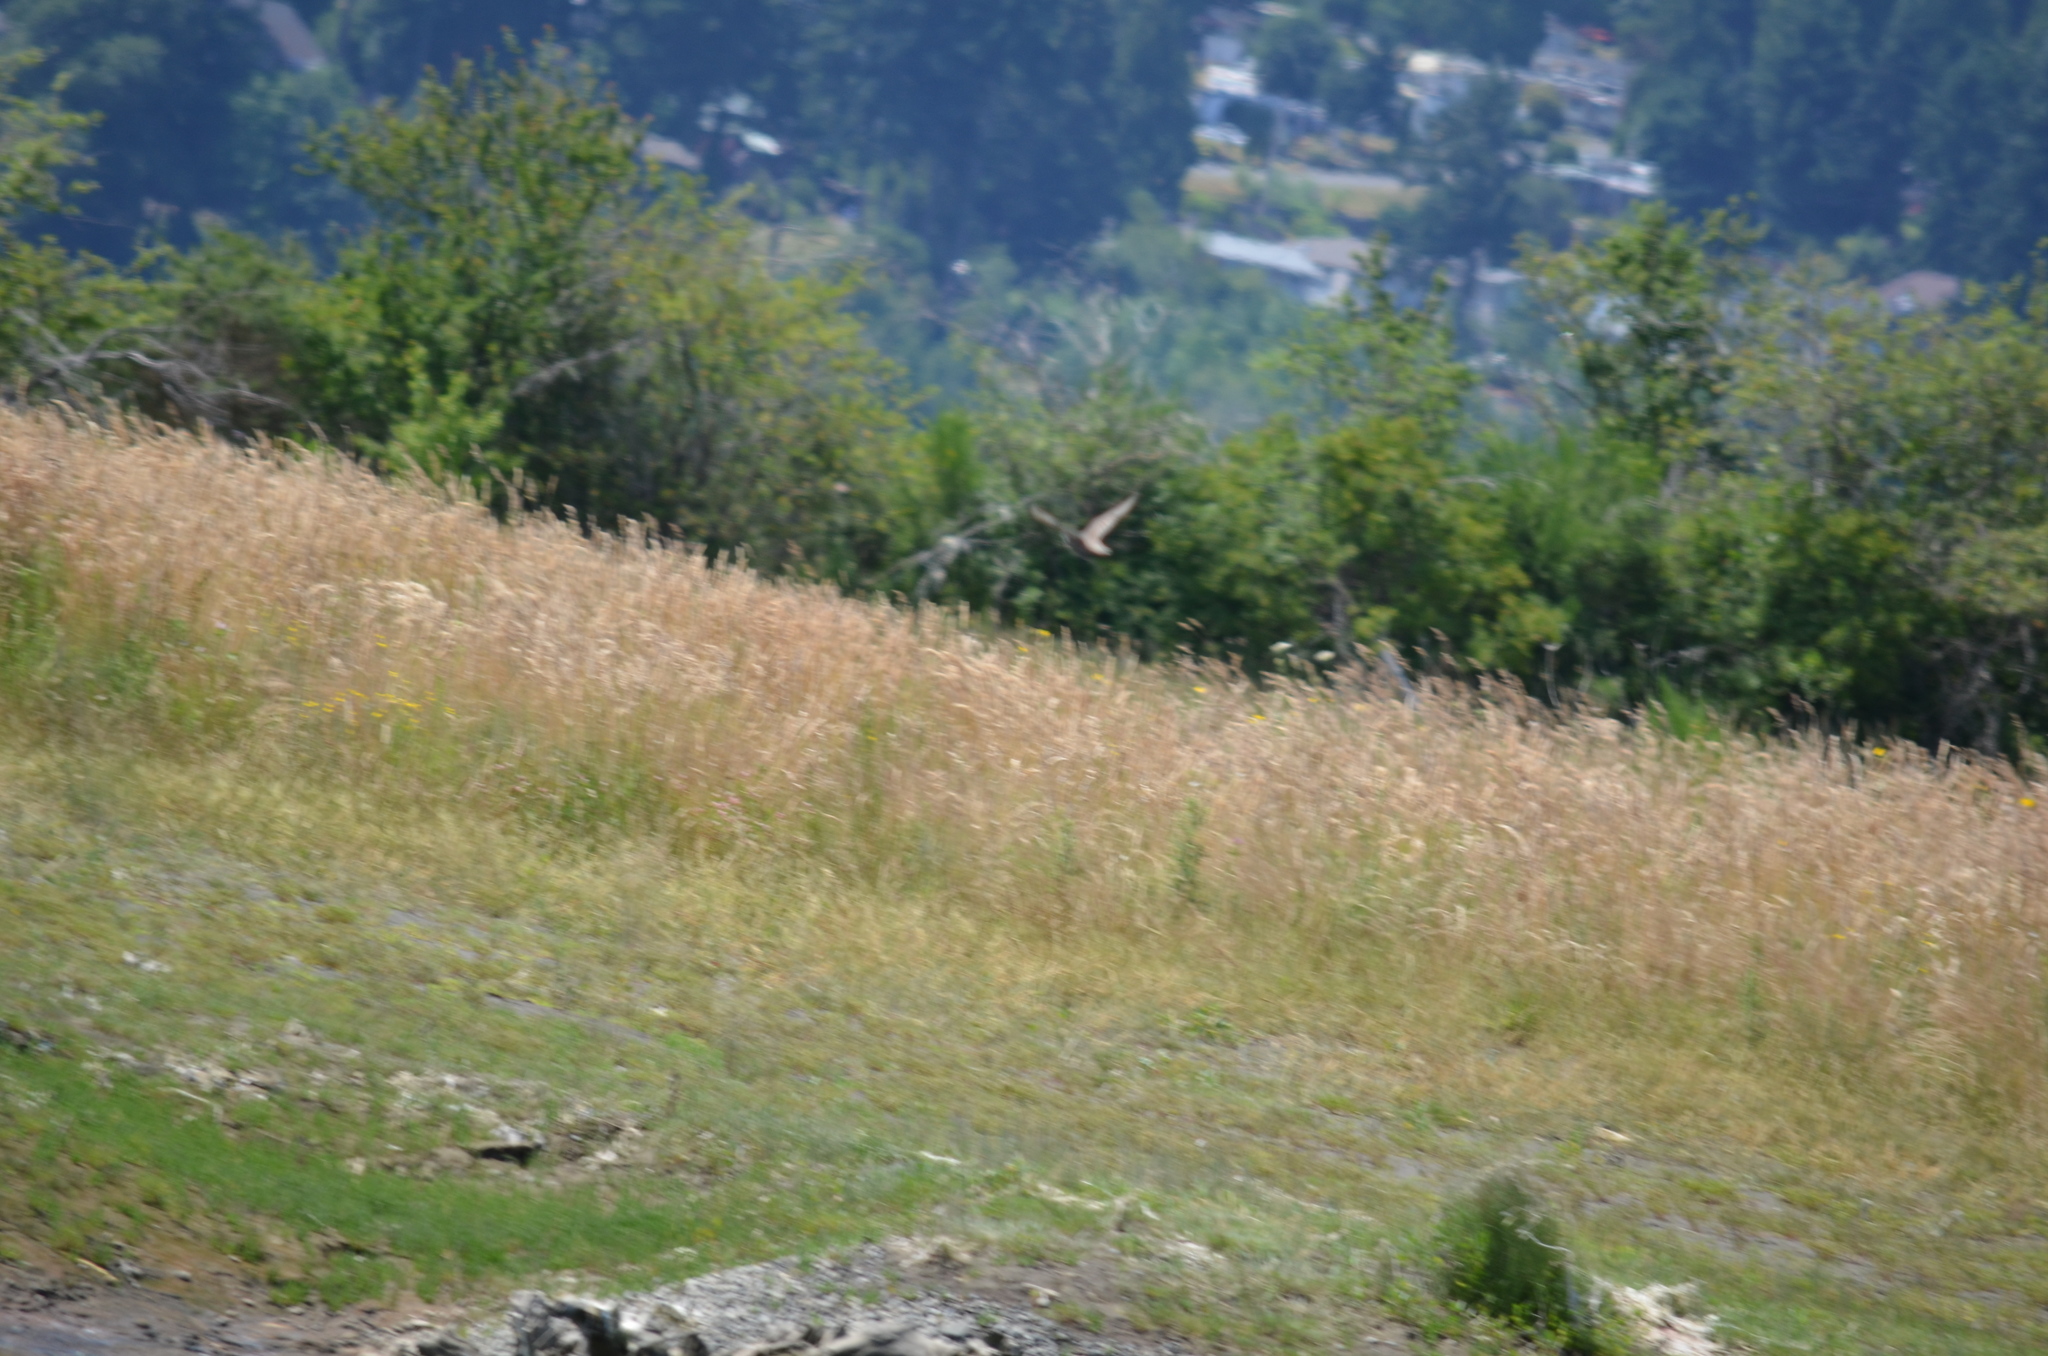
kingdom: Animalia
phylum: Chordata
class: Aves
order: Passeriformes
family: Sturnidae
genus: Sturnus
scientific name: Sturnus vulgaris
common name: Common starling
